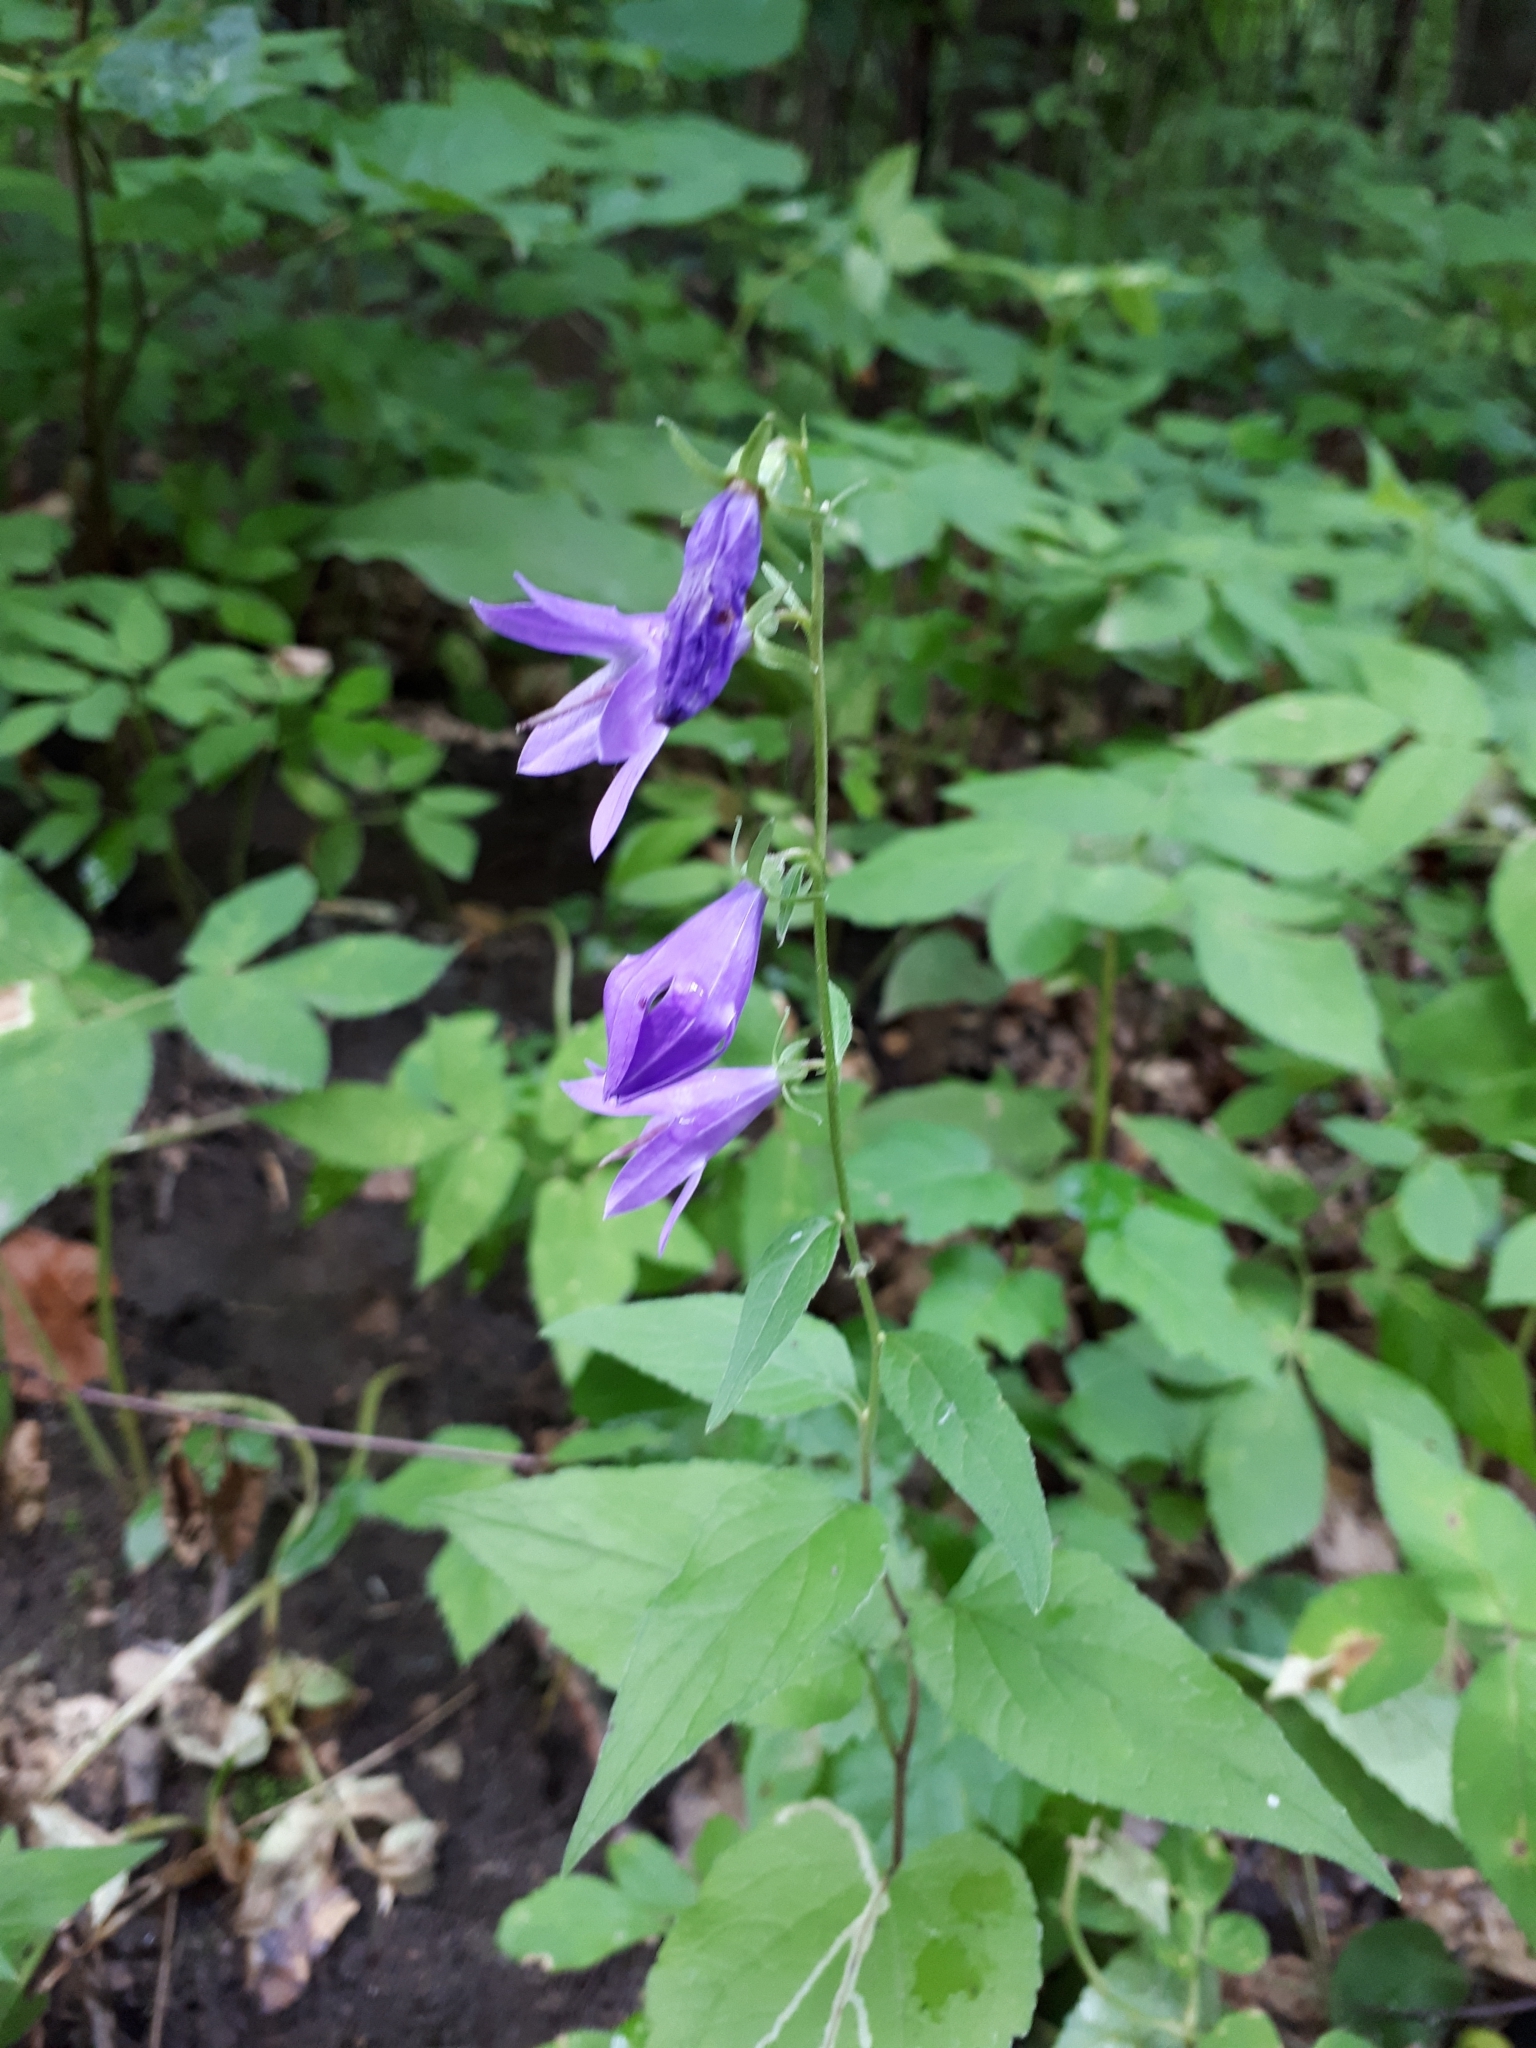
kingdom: Plantae
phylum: Tracheophyta
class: Magnoliopsida
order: Asterales
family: Campanulaceae
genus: Campanula
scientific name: Campanula rapunculoides
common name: Creeping bellflower
